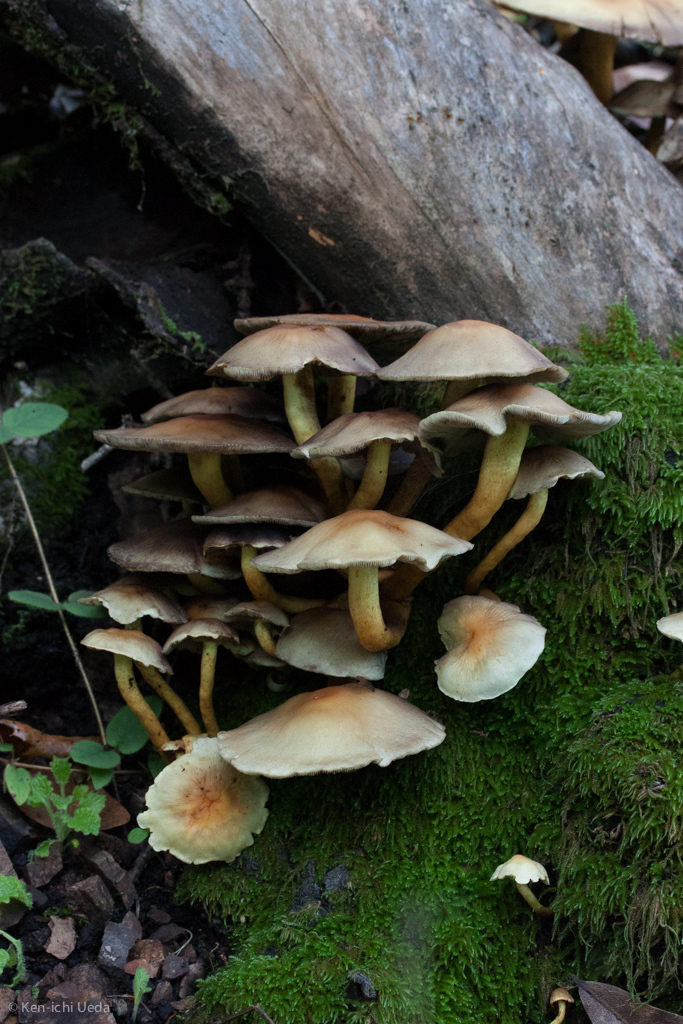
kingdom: Fungi
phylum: Basidiomycota
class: Agaricomycetes
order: Agaricales
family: Strophariaceae
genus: Hypholoma
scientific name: Hypholoma fasciculare
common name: Sulphur tuft
